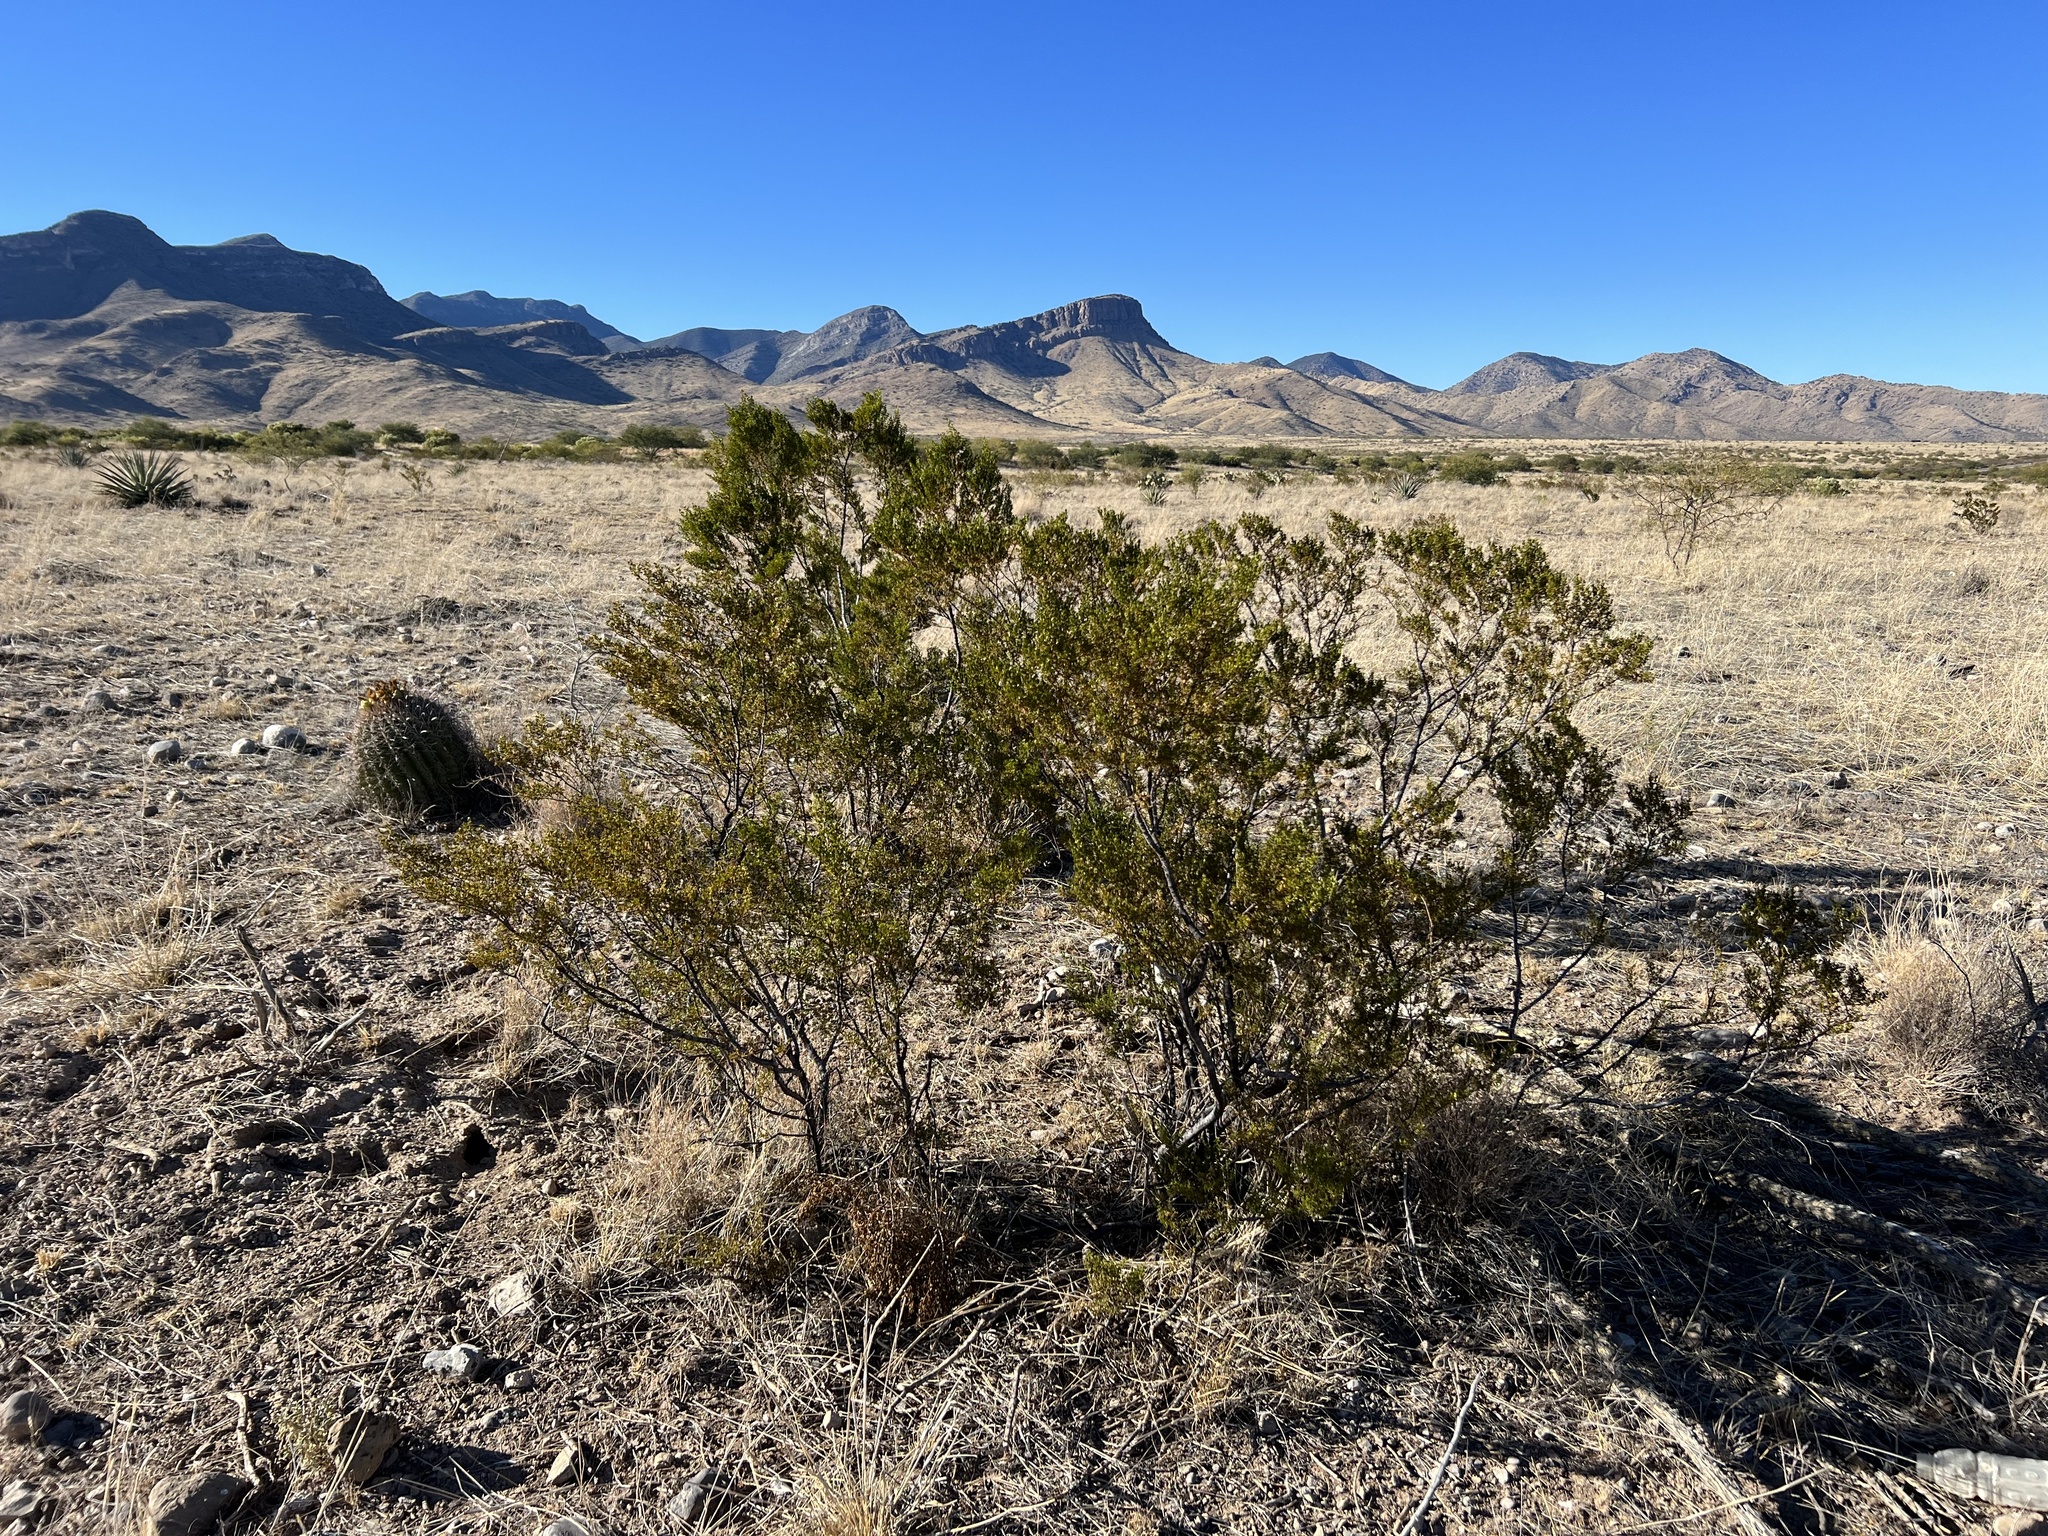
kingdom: Plantae
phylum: Tracheophyta
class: Magnoliopsida
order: Zygophyllales
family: Zygophyllaceae
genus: Larrea
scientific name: Larrea tridentata
